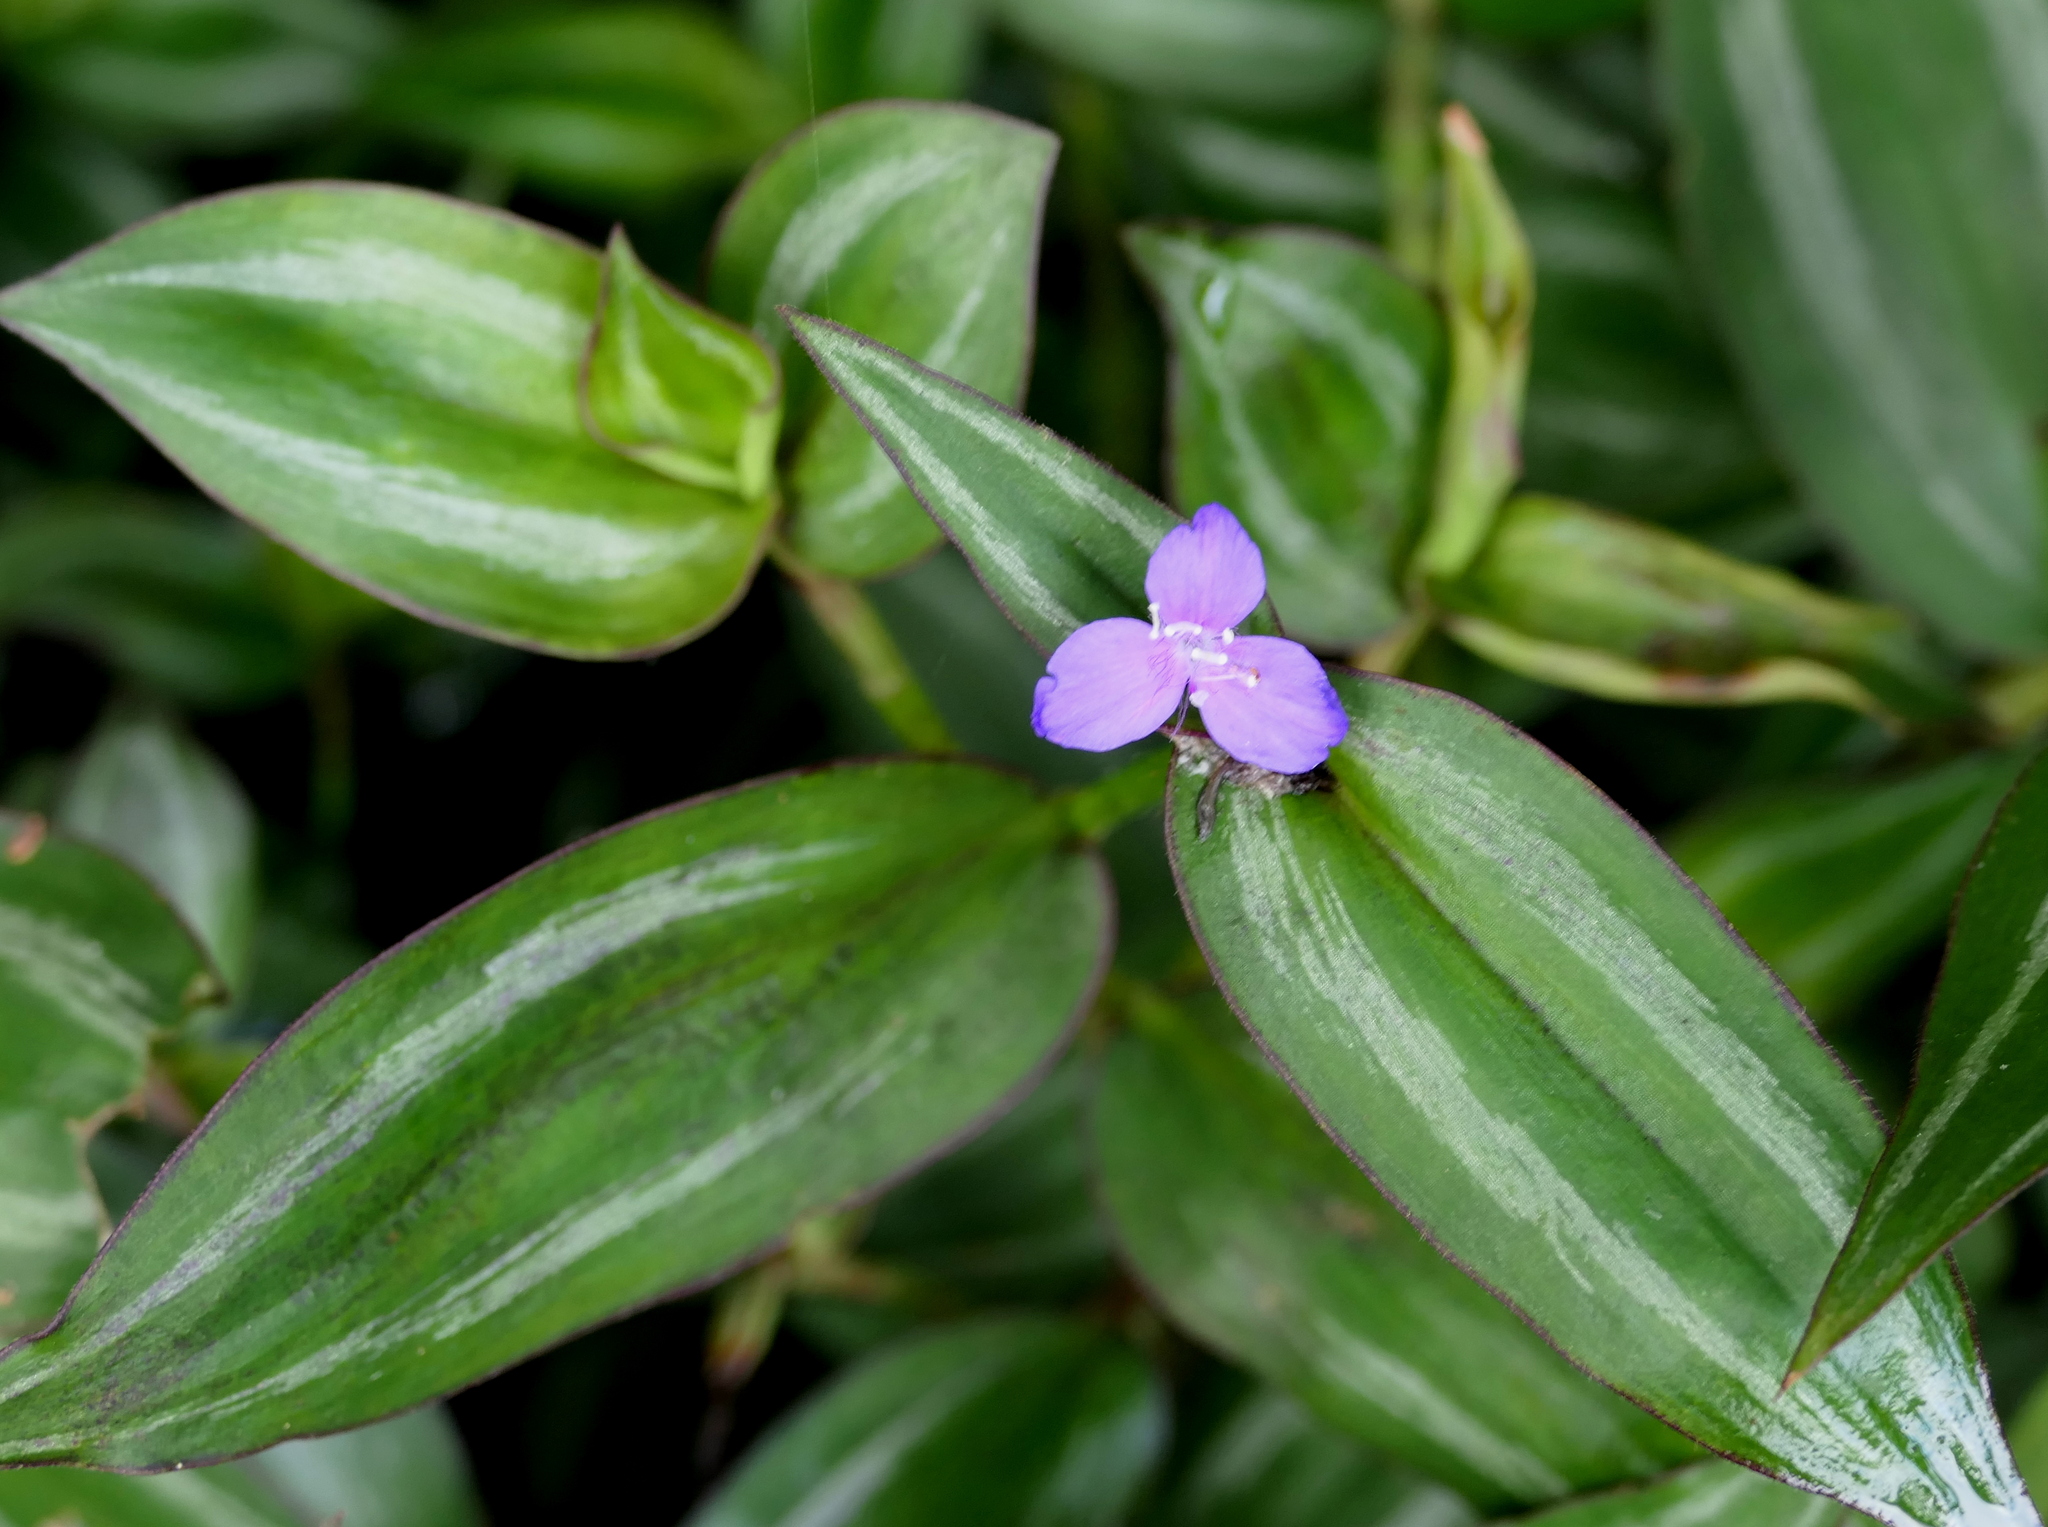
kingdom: Plantae
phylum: Tracheophyta
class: Liliopsida
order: Commelinales
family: Commelinaceae
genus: Tradescantia
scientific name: Tradescantia zebrina
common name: Inchplant
